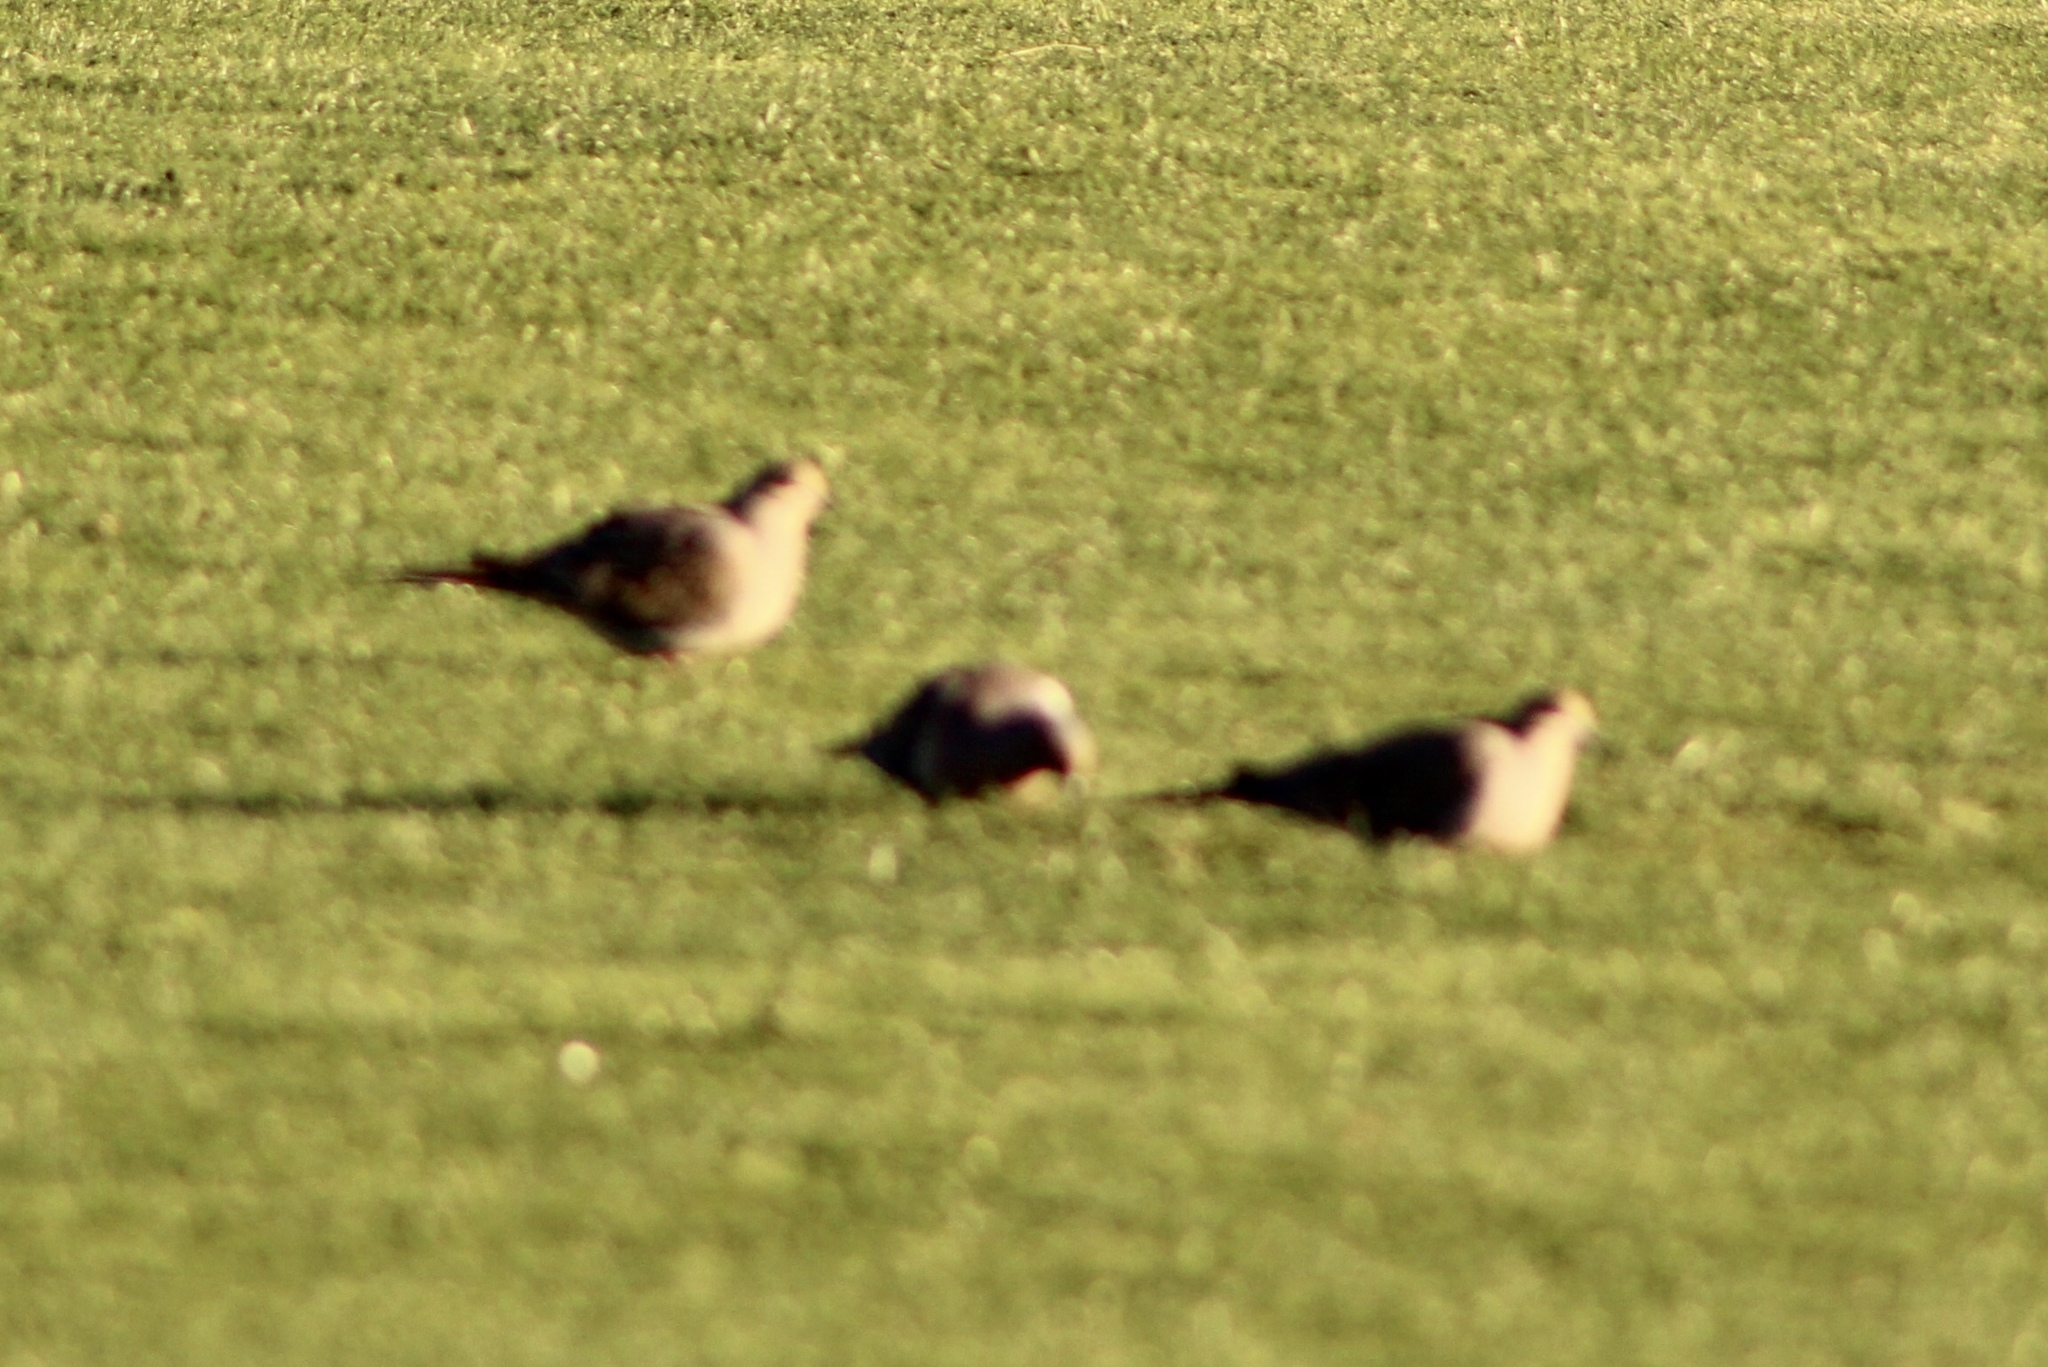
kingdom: Animalia
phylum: Chordata
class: Aves
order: Columbiformes
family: Columbidae
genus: Zenaida
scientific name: Zenaida macroura
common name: Mourning dove
